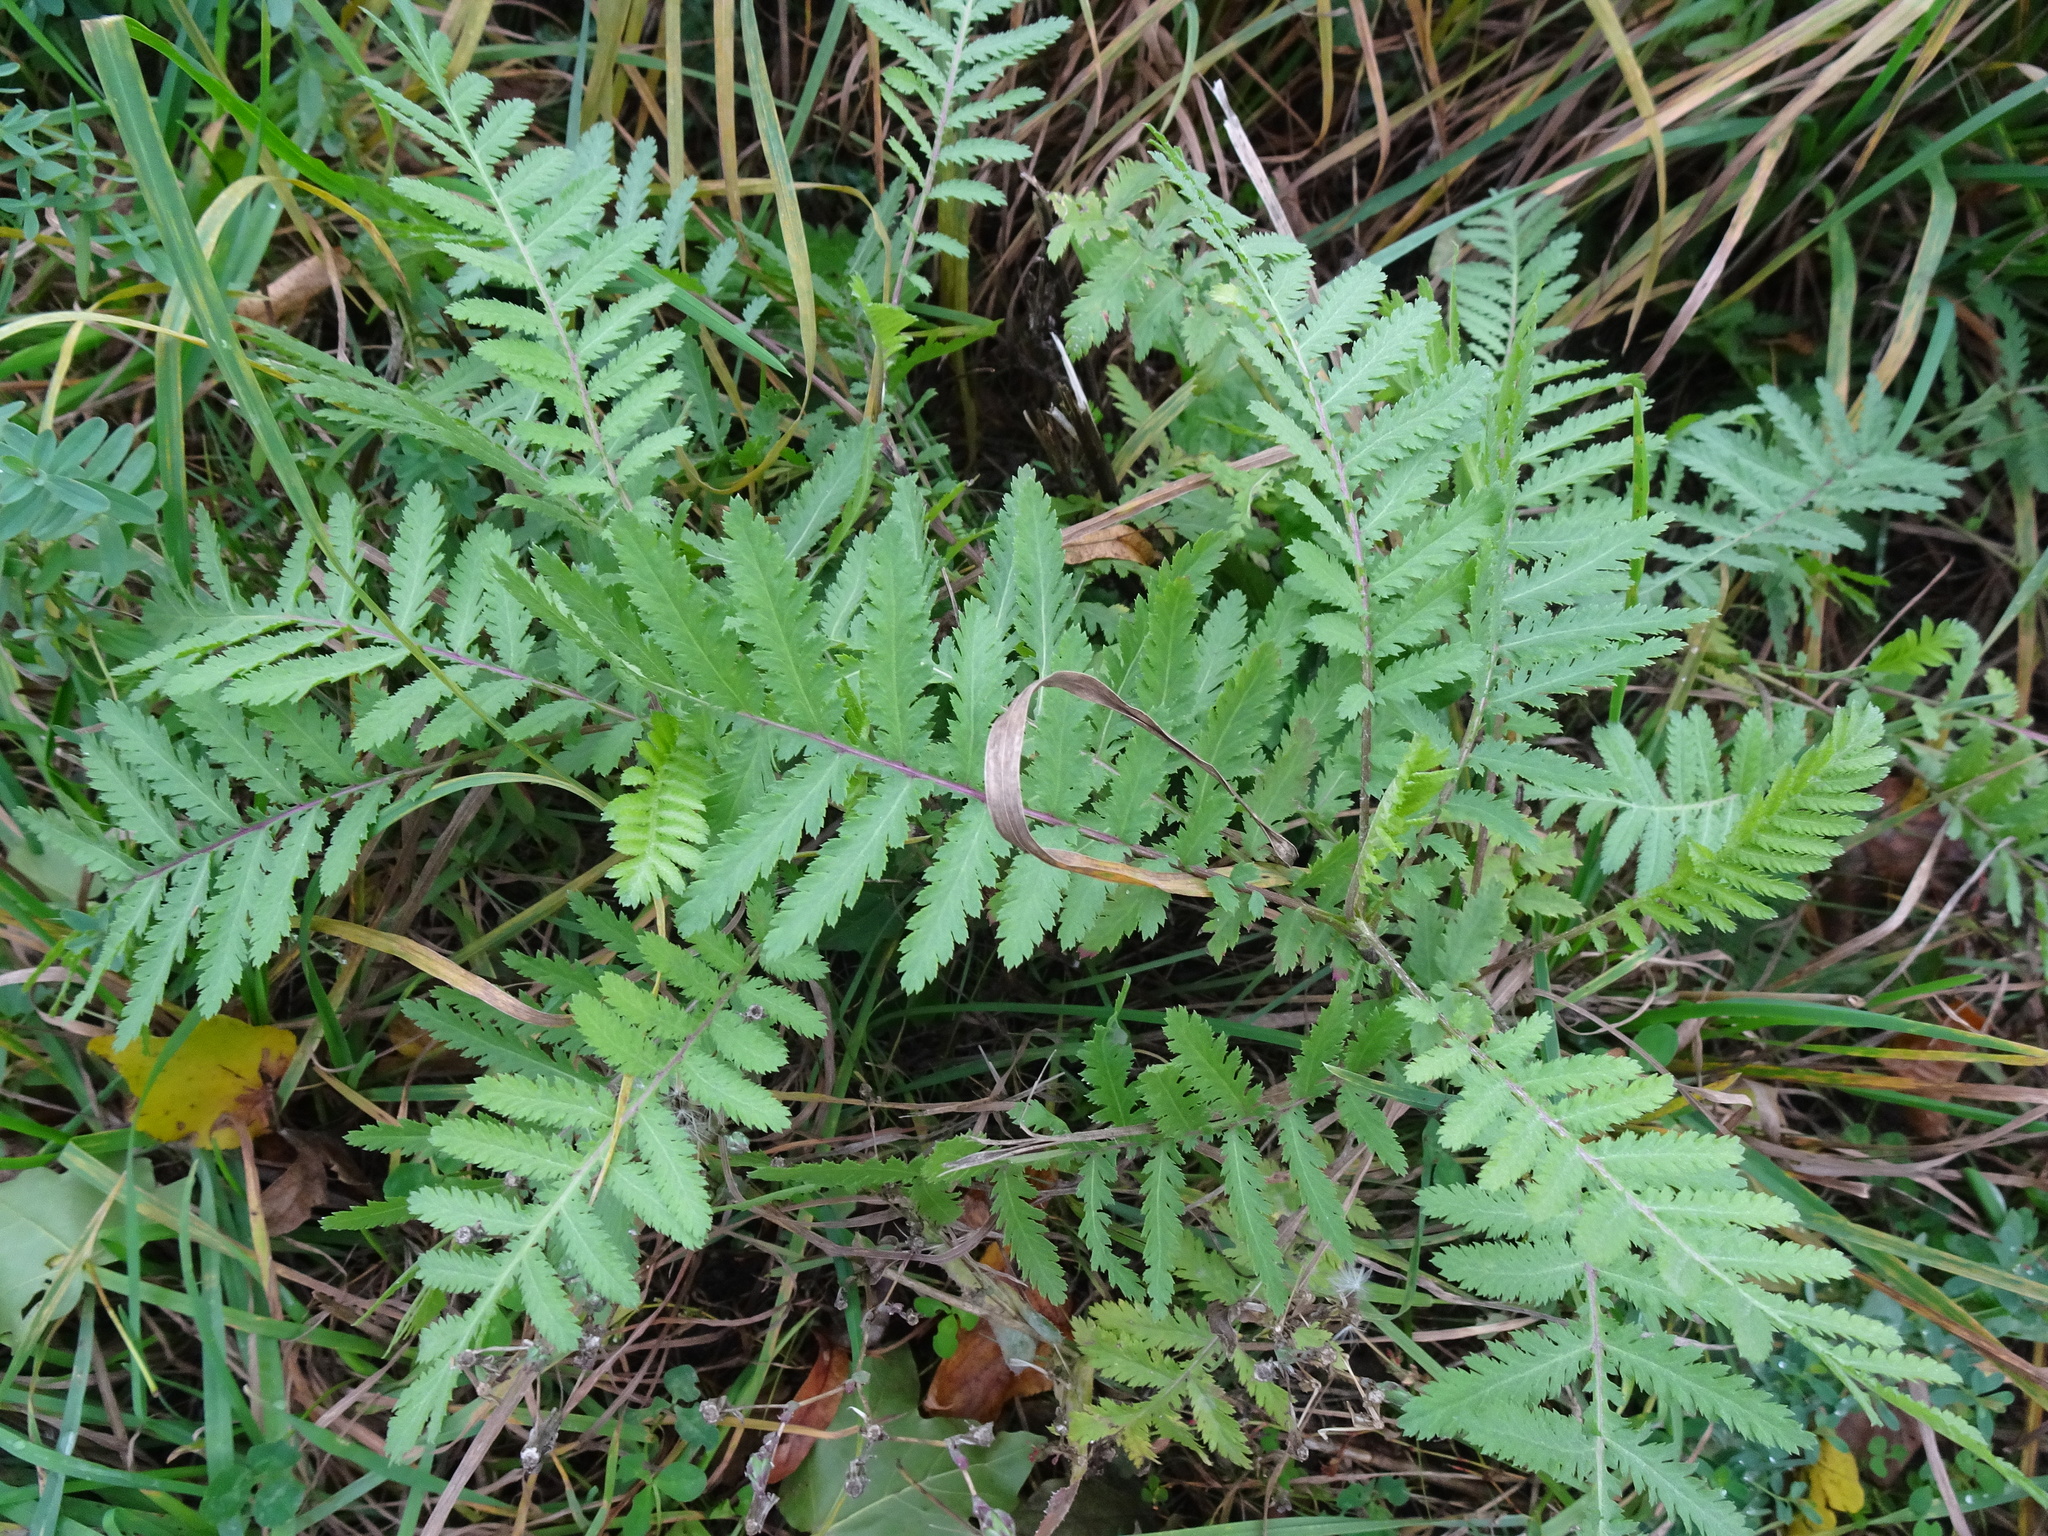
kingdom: Plantae
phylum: Tracheophyta
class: Magnoliopsida
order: Asterales
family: Asteraceae
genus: Tanacetum
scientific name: Tanacetum vulgare
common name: Common tansy
